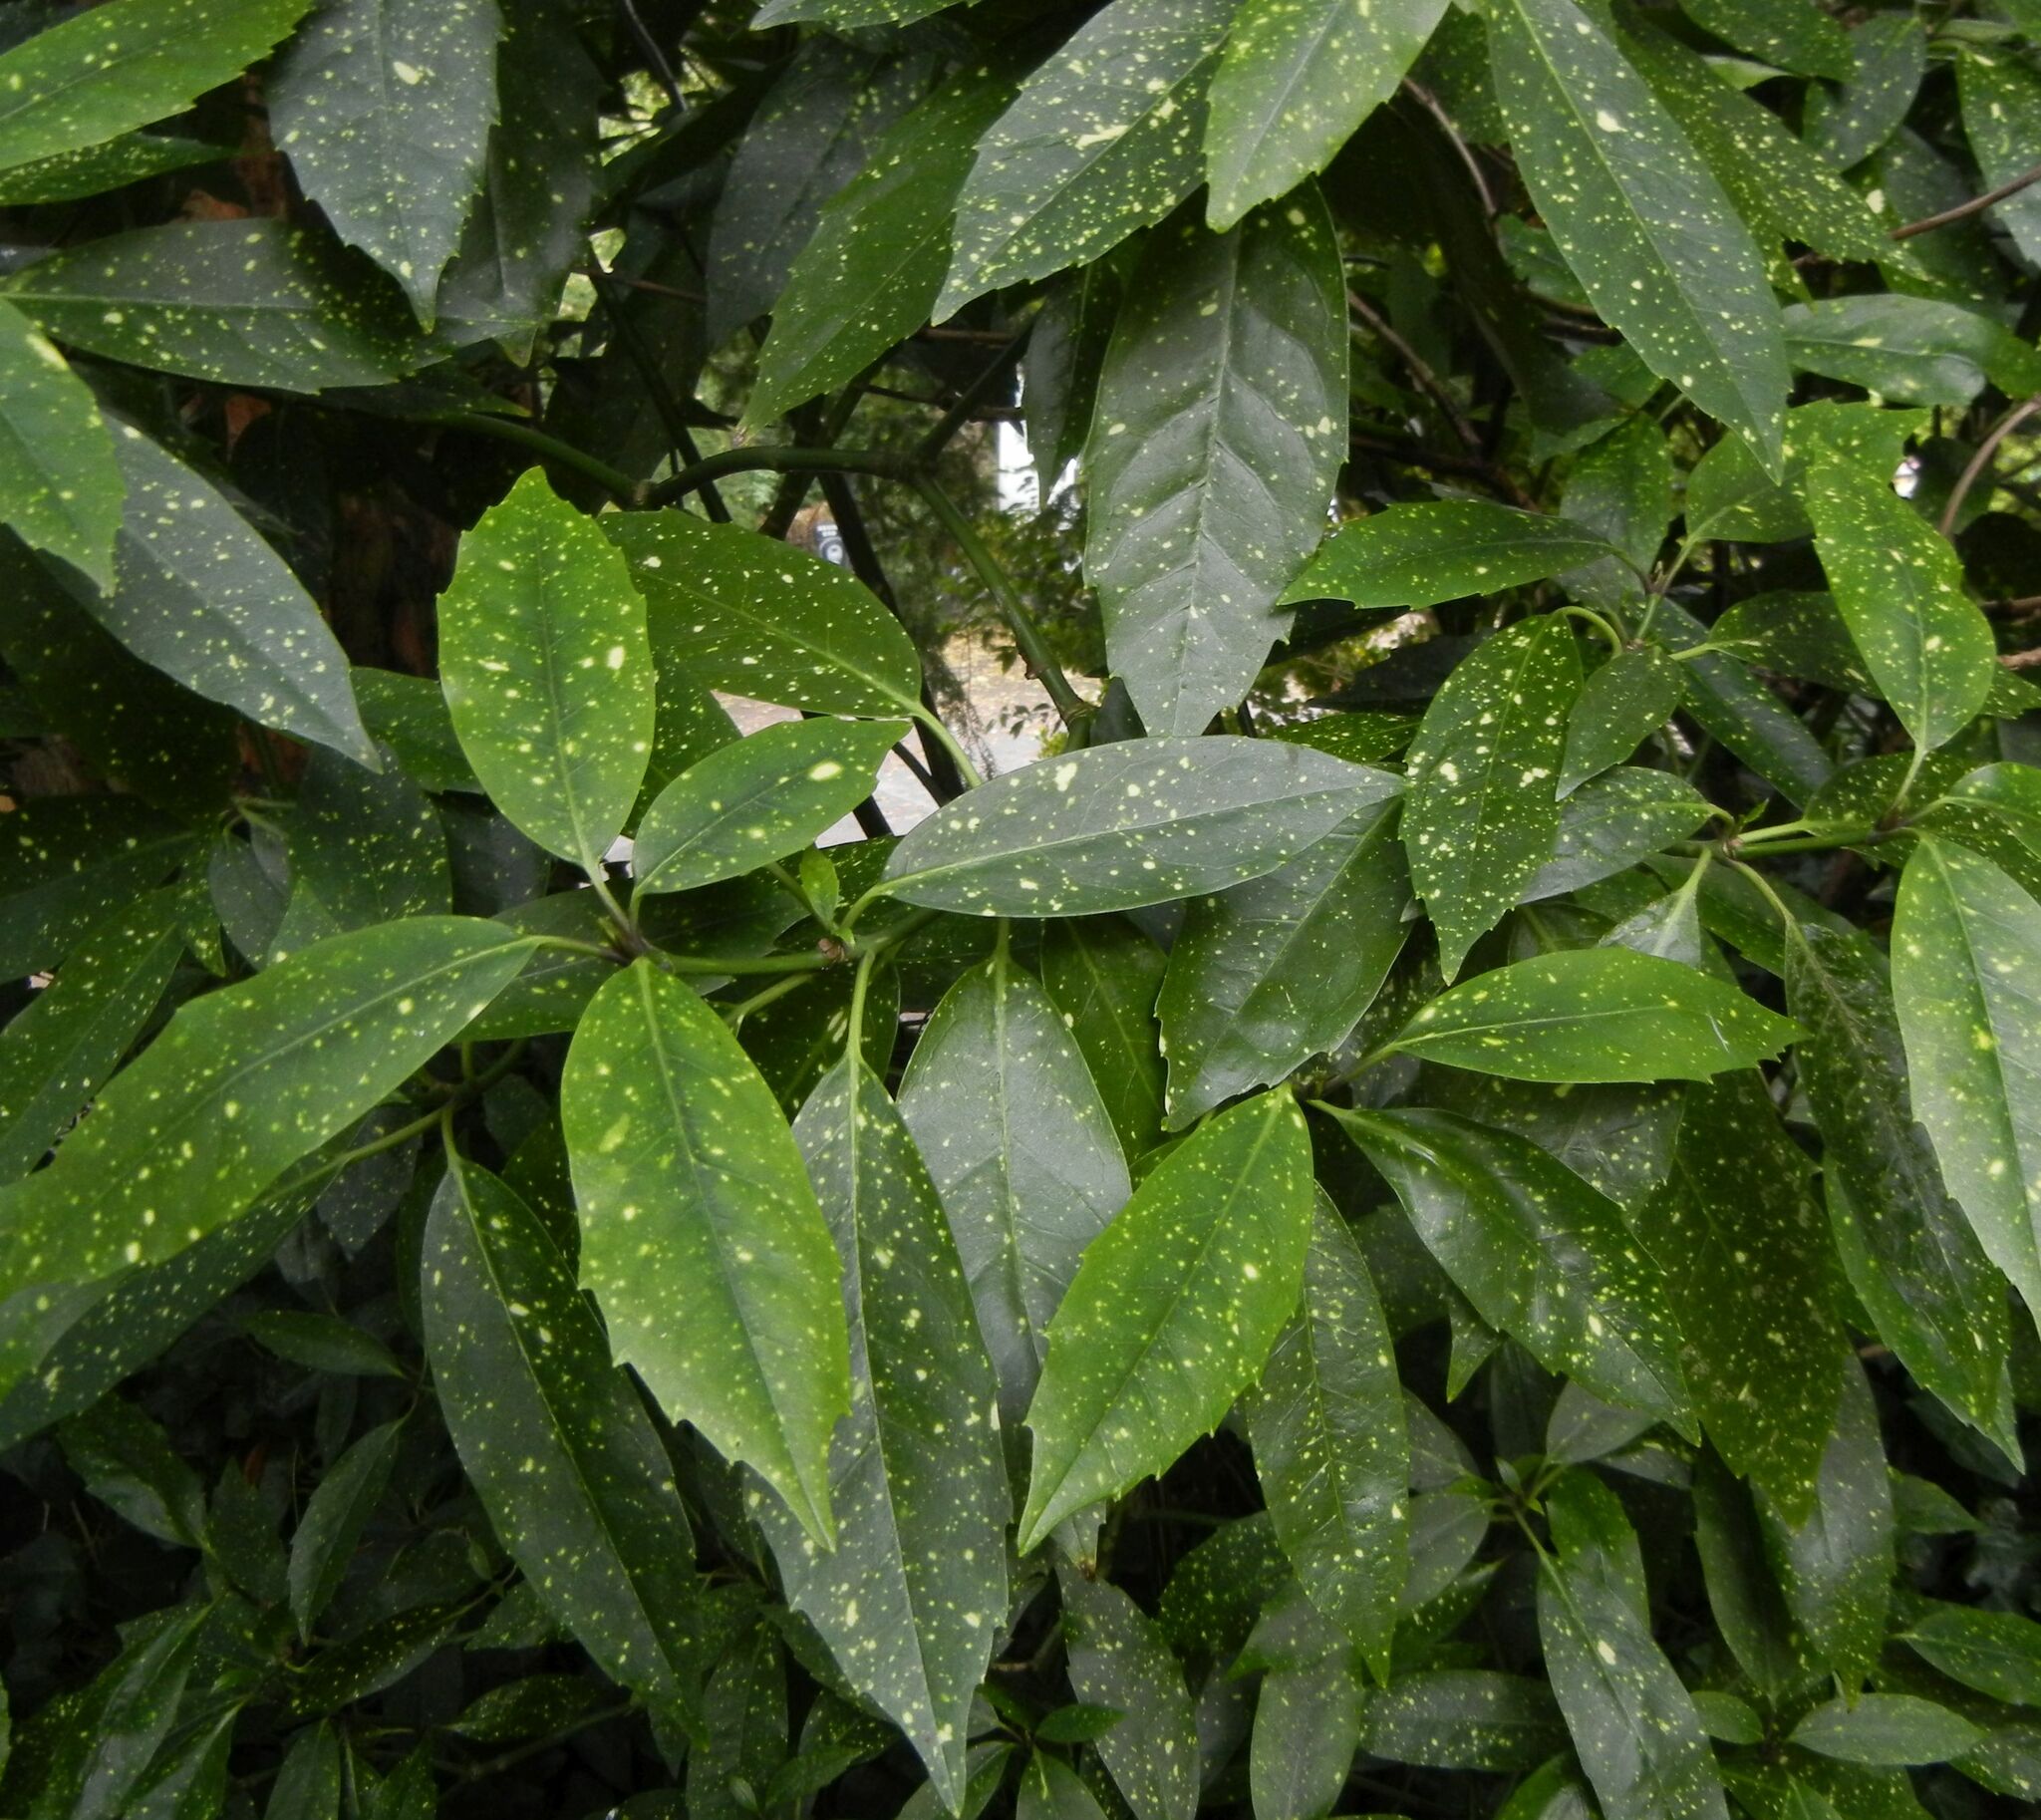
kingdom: Plantae
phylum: Tracheophyta
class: Magnoliopsida
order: Garryales
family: Garryaceae
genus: Aucuba
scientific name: Aucuba japonica
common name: Spotted-laurel
